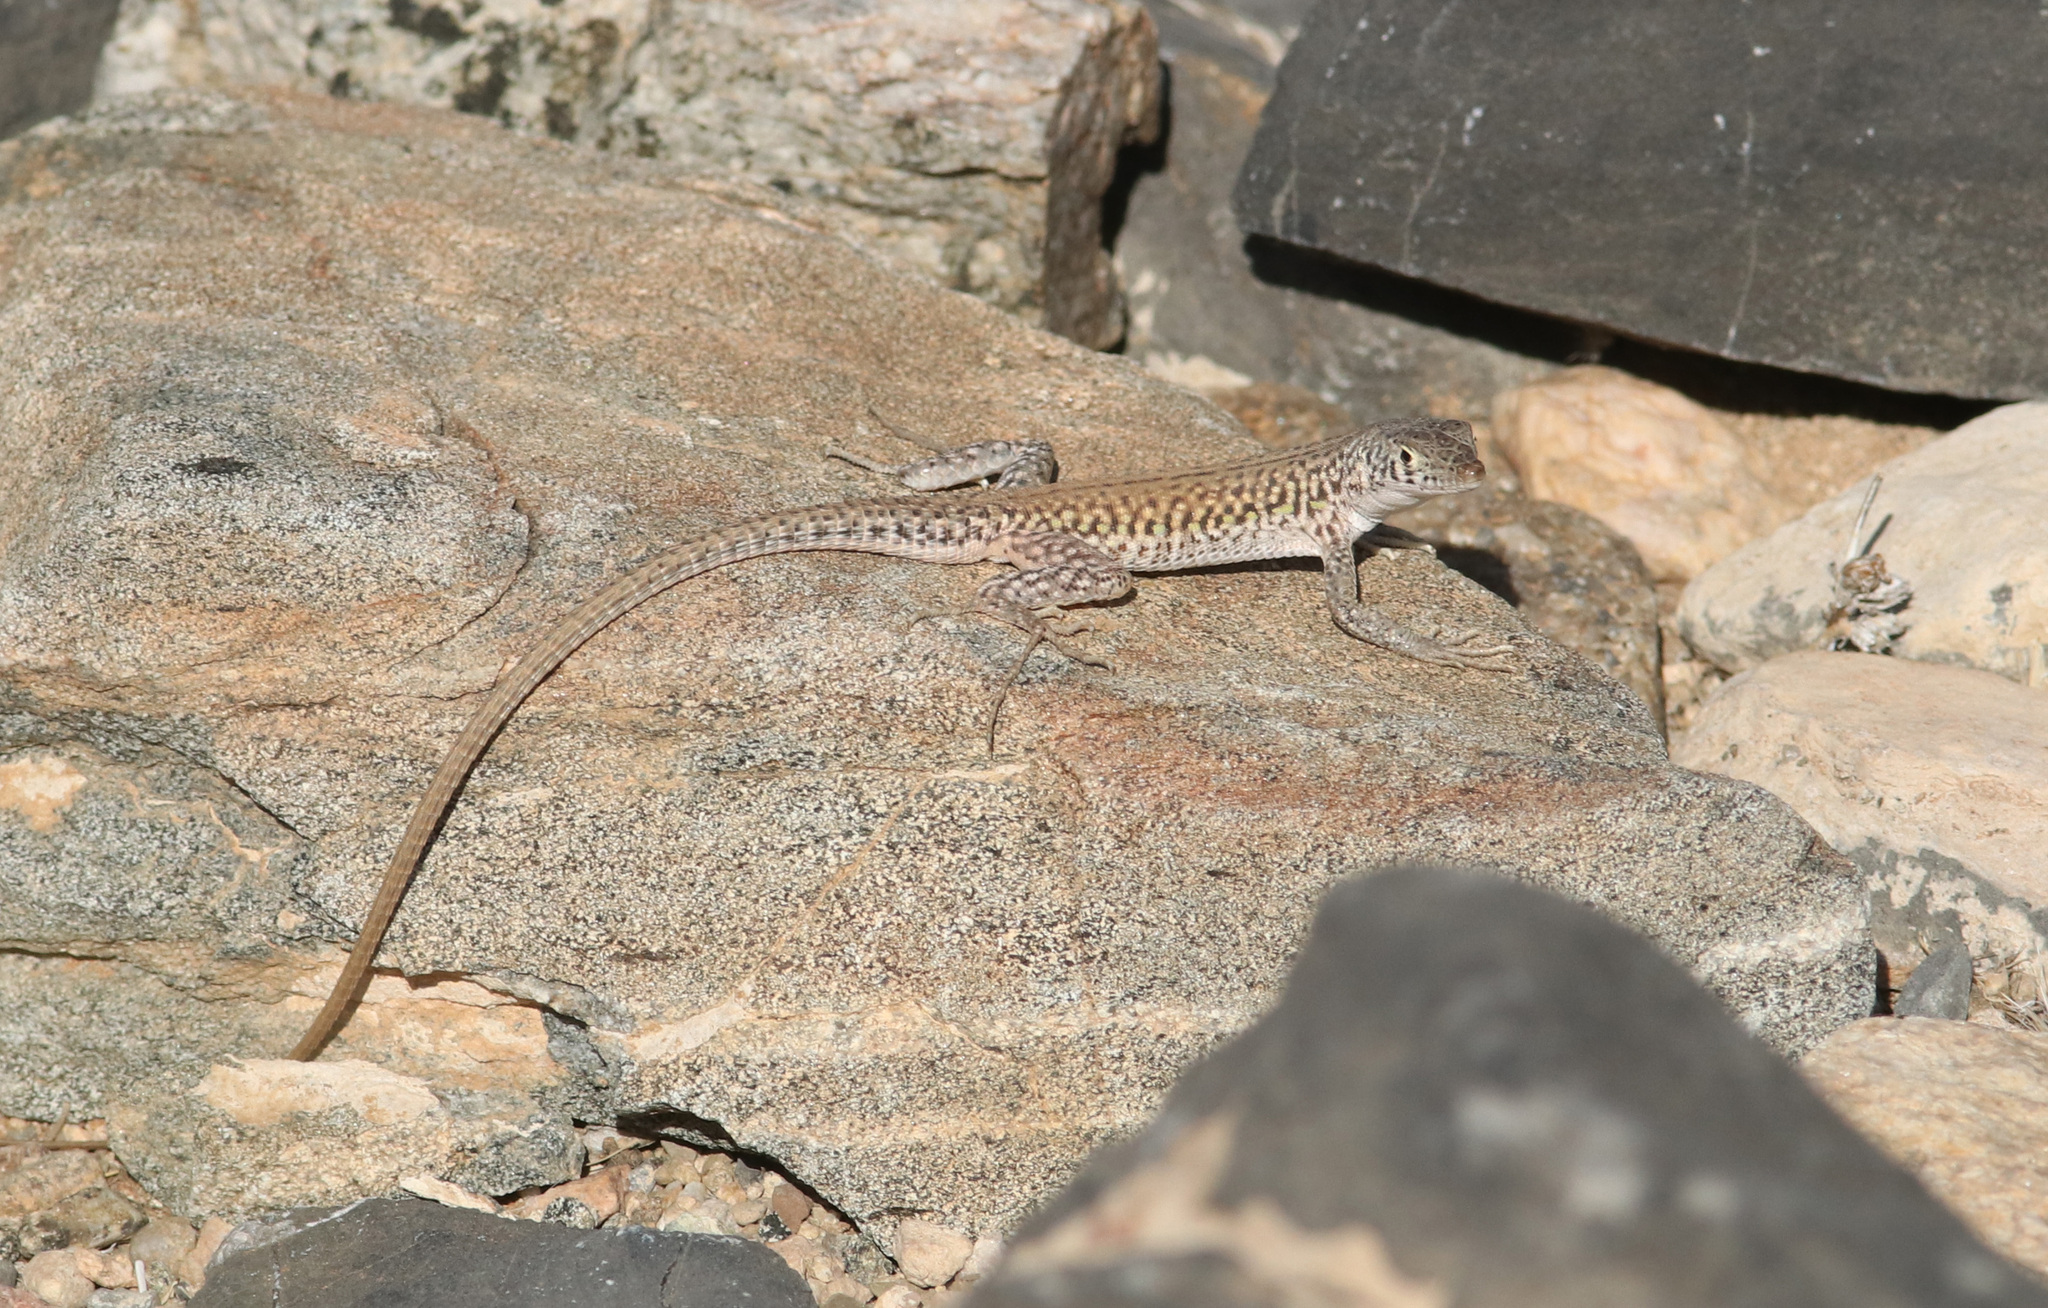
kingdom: Animalia
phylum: Chordata
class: Squamata
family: Lacertidae
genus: Pedioplanis
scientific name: Pedioplanis inornata
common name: Plain sand lizard
